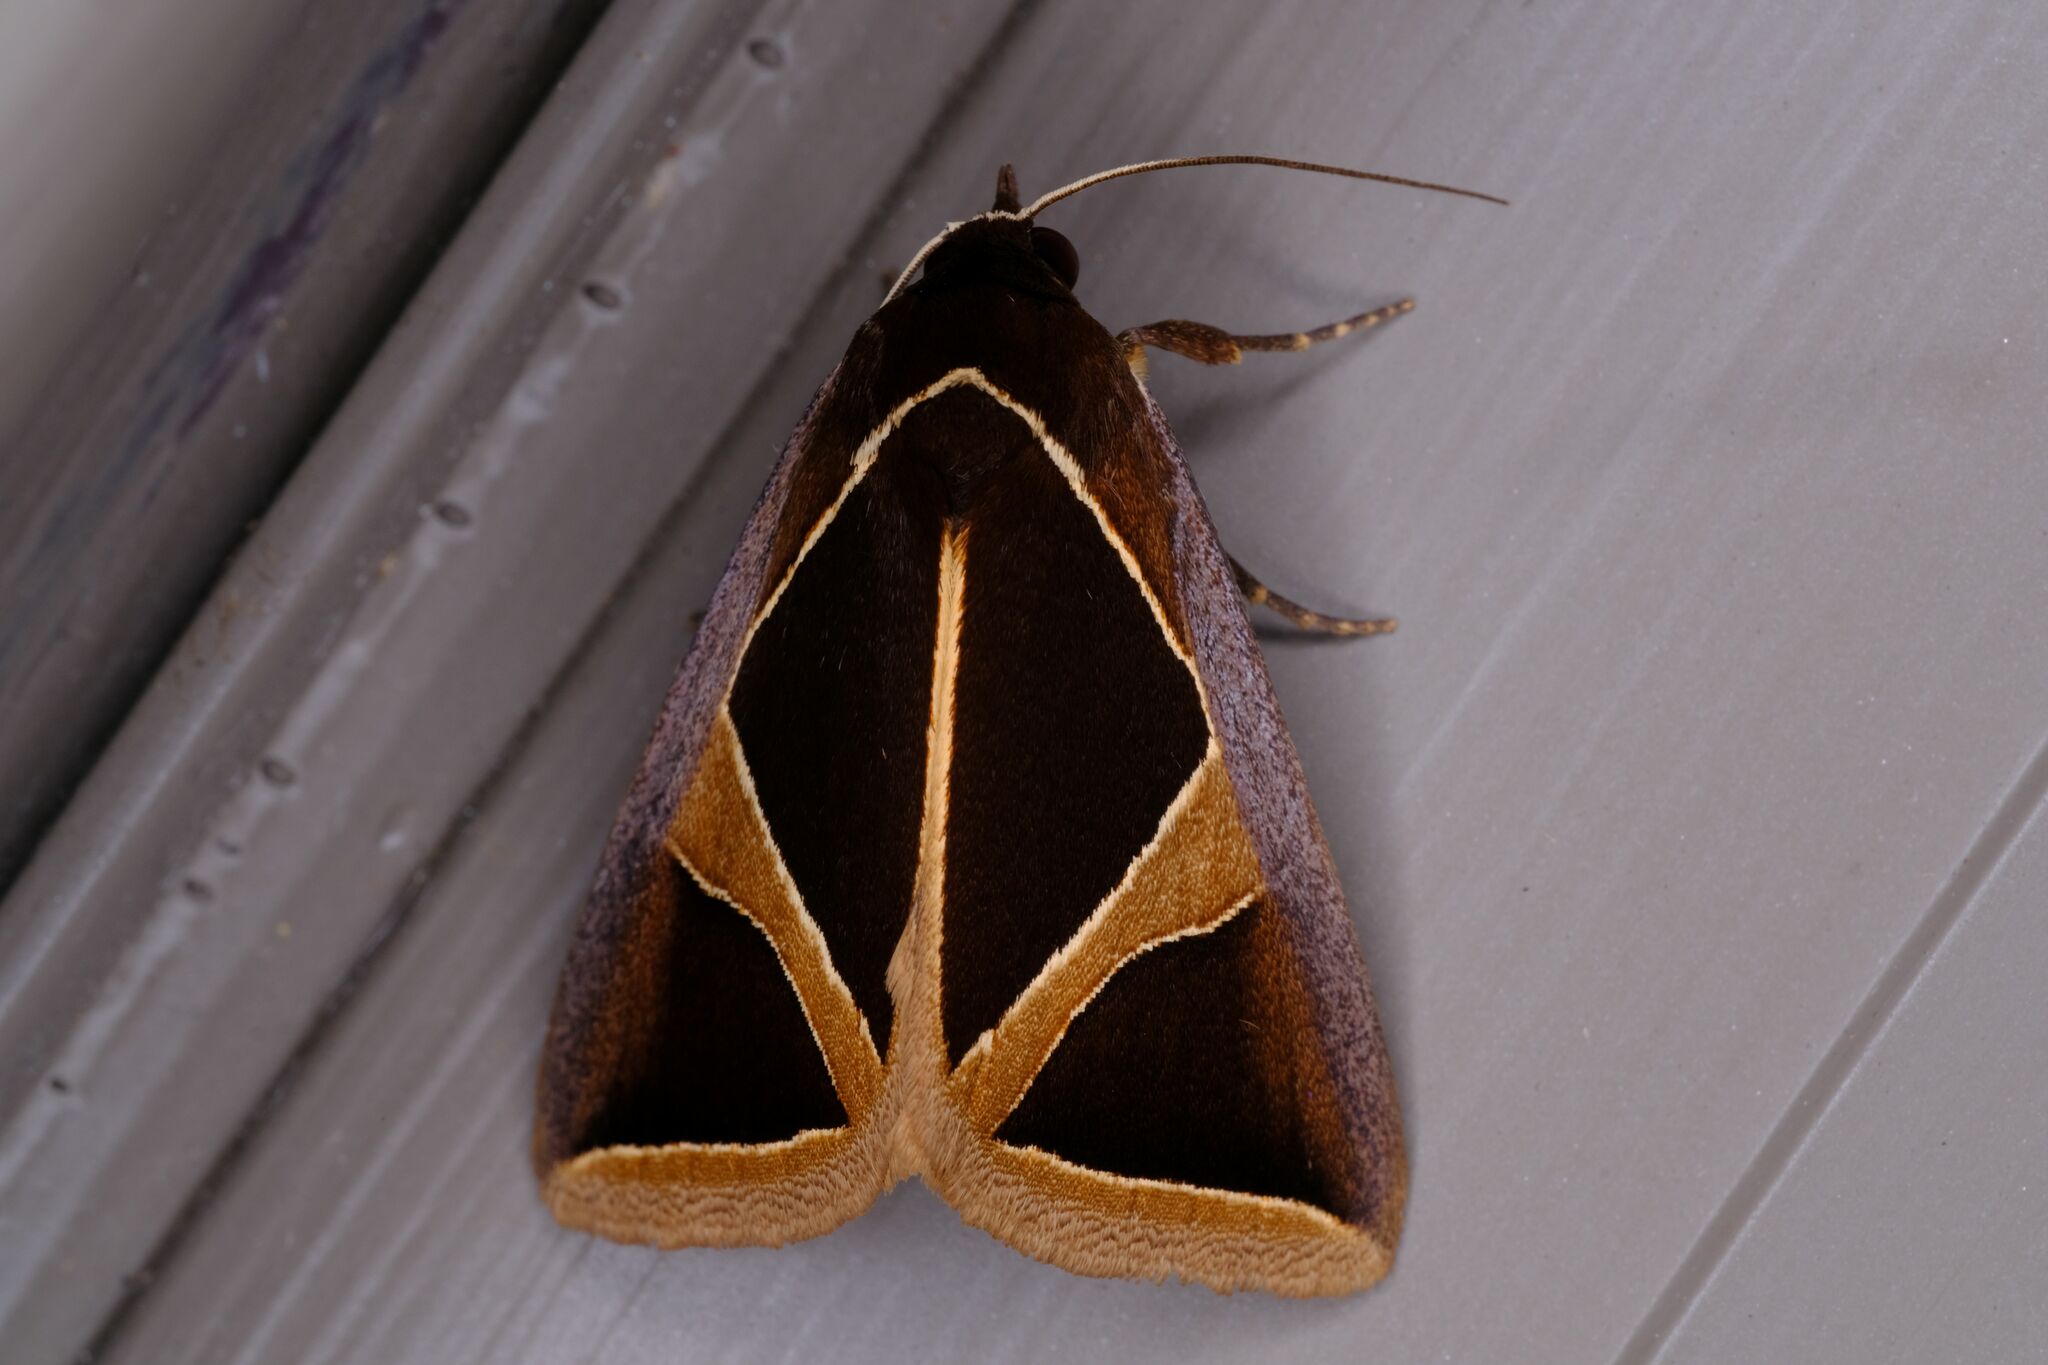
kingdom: Animalia
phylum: Arthropoda
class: Insecta
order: Lepidoptera
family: Erebidae
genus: Agamana
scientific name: Agamana conjungens
